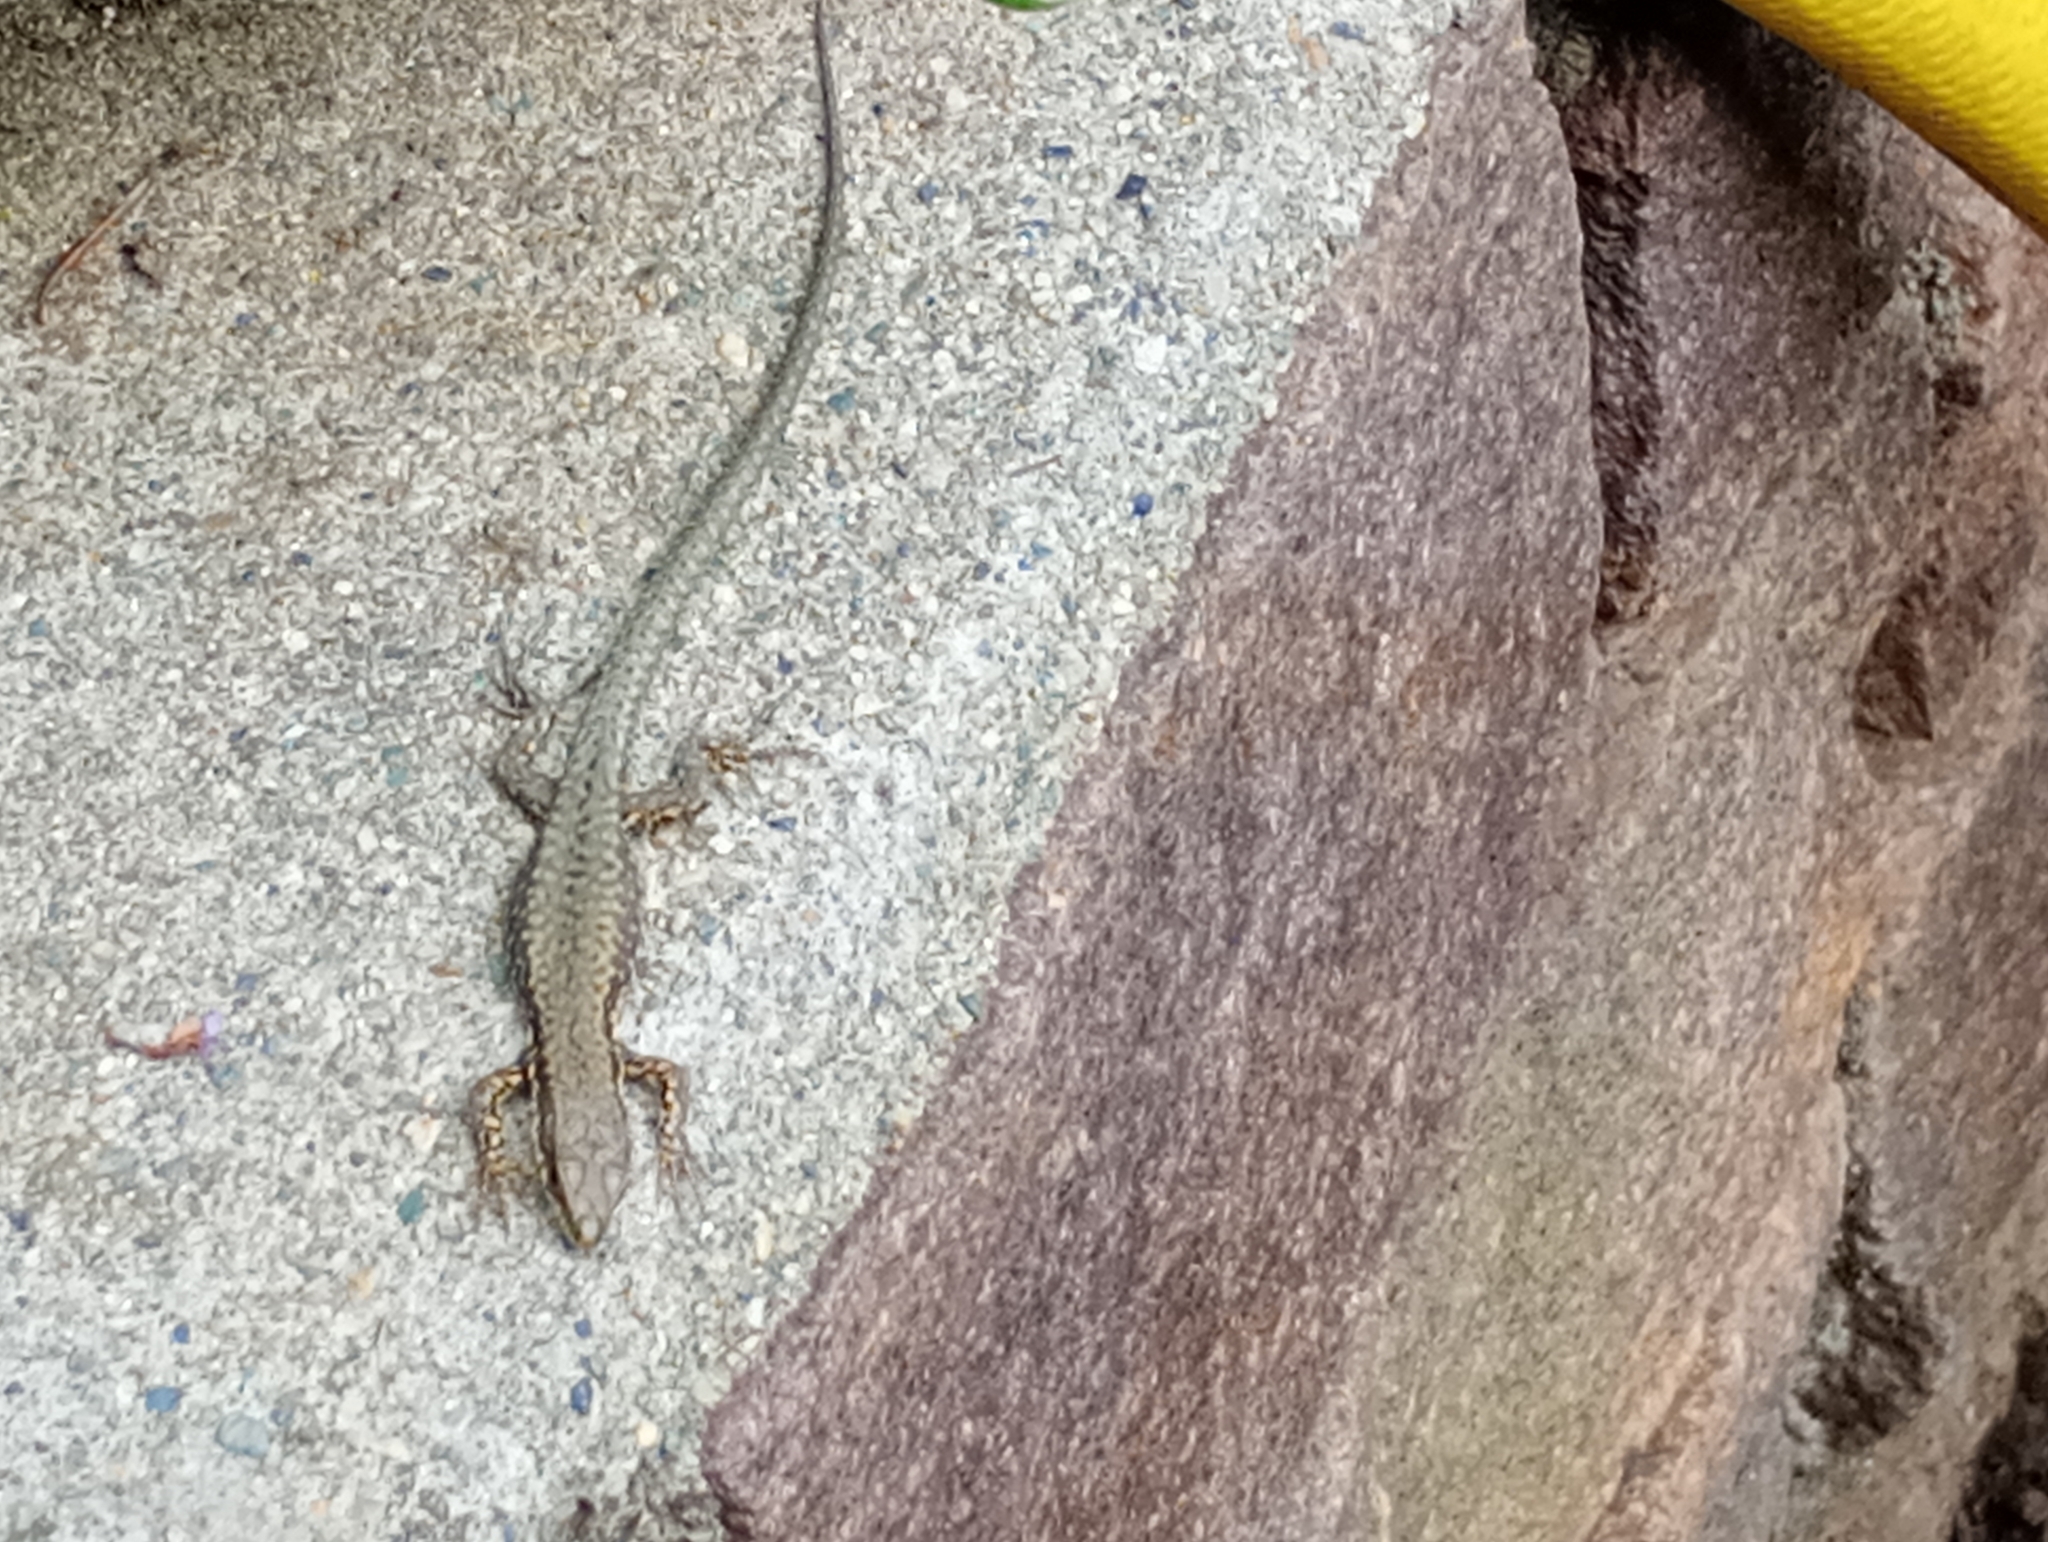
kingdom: Animalia
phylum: Chordata
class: Squamata
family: Lacertidae
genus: Podarcis
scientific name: Podarcis muralis
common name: Common wall lizard
